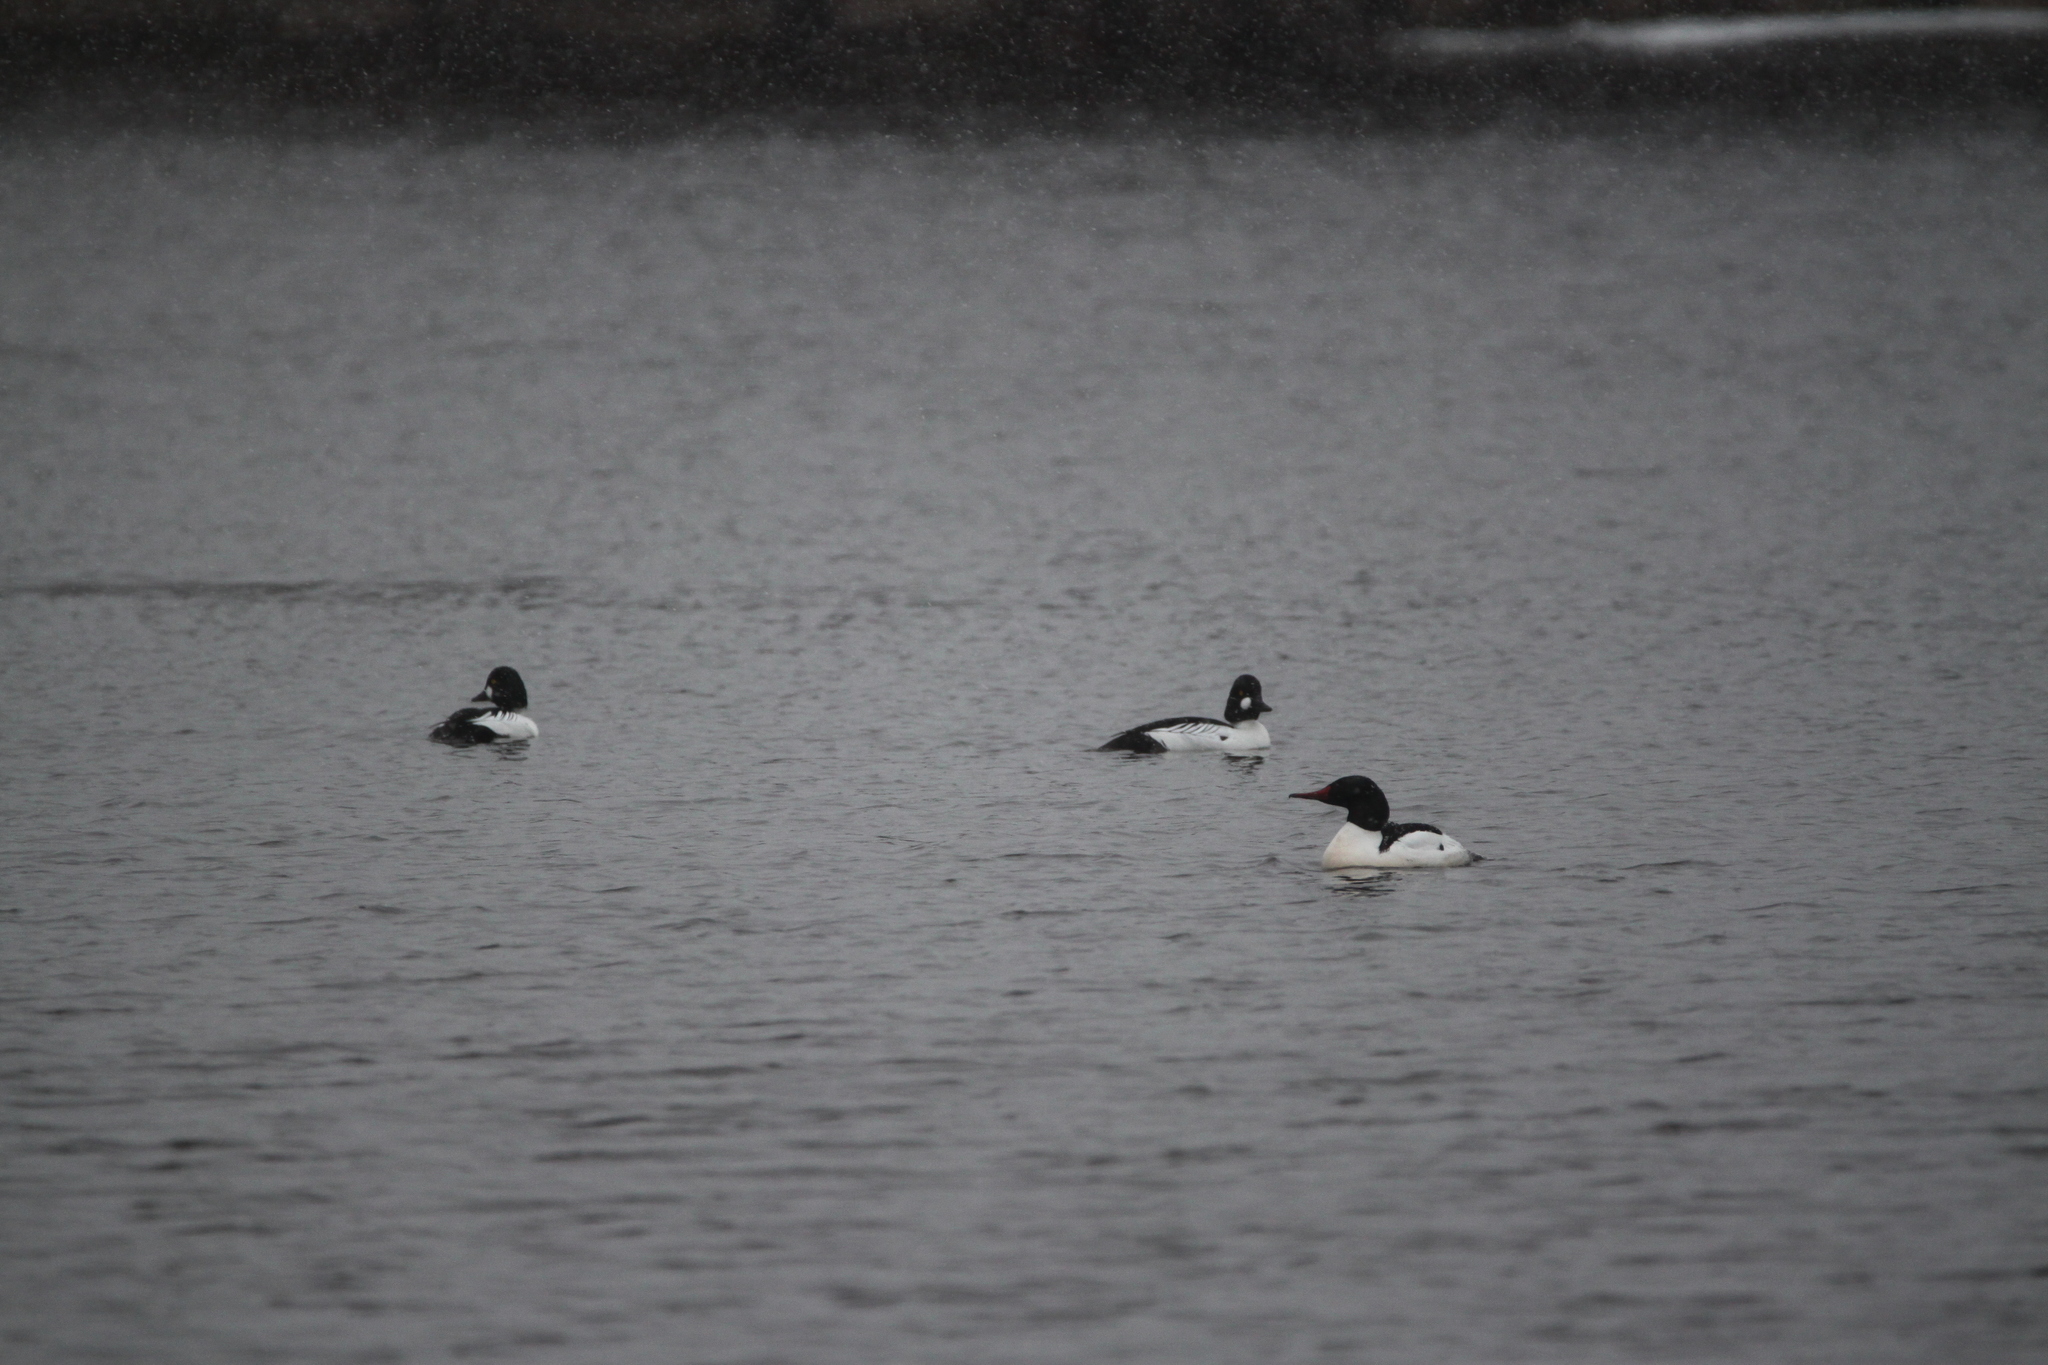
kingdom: Animalia
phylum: Chordata
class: Aves
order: Anseriformes
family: Anatidae
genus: Bucephala
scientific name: Bucephala clangula
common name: Common goldeneye
